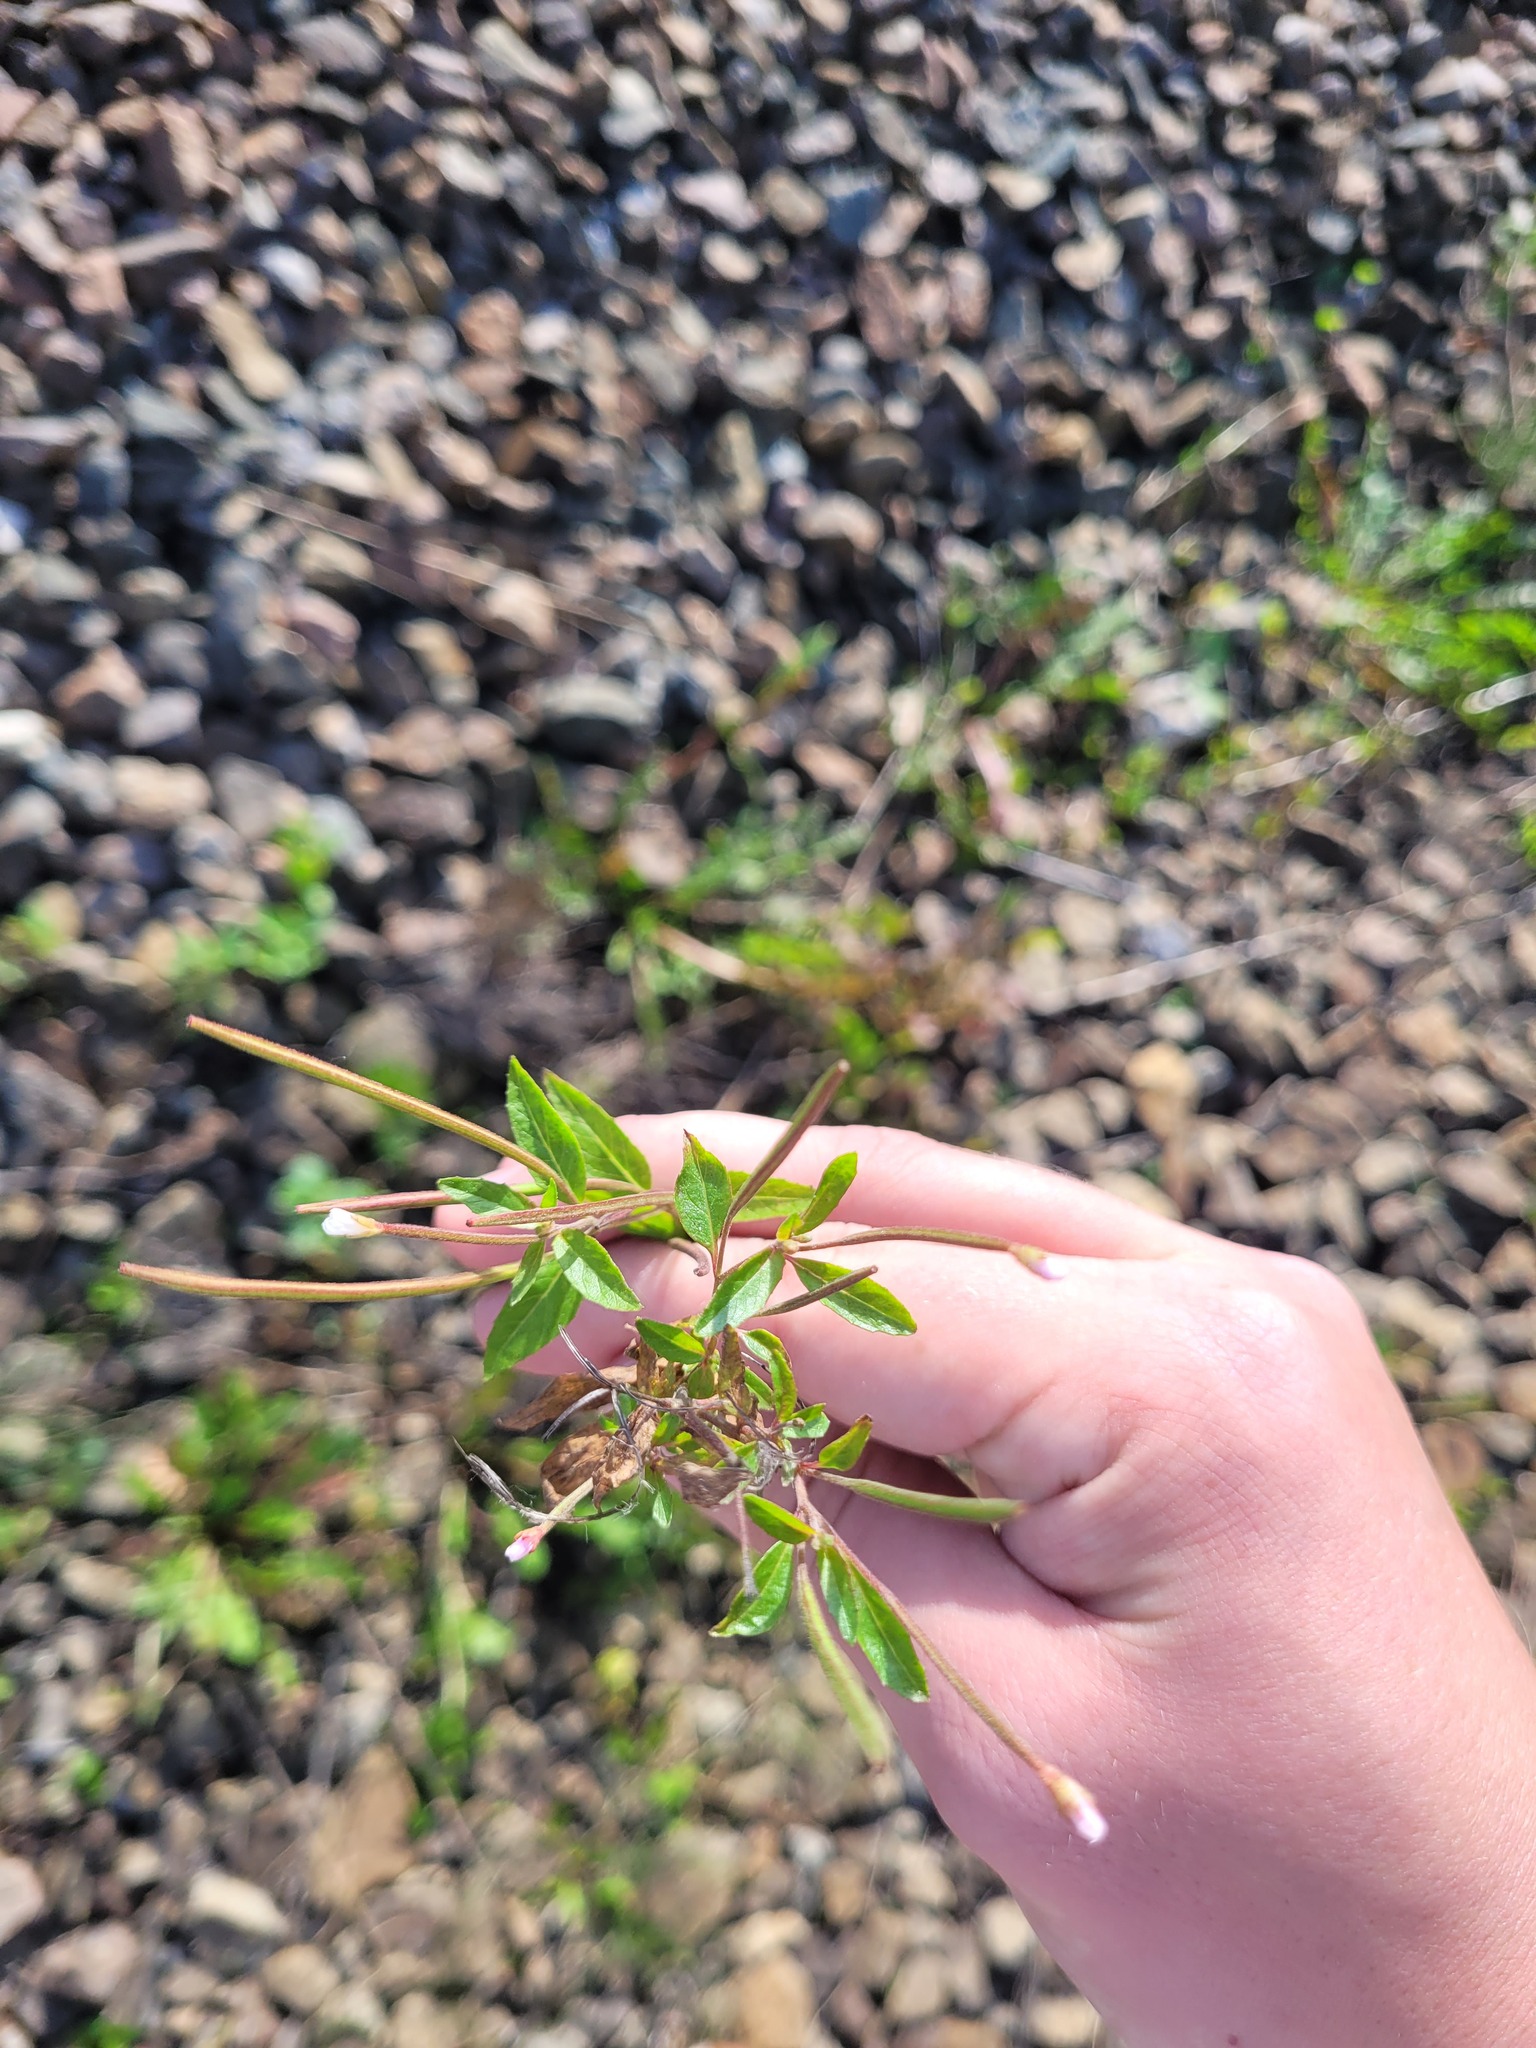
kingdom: Plantae
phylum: Tracheophyta
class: Magnoliopsida
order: Myrtales
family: Onagraceae
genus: Epilobium
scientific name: Epilobium pseudorubescens
